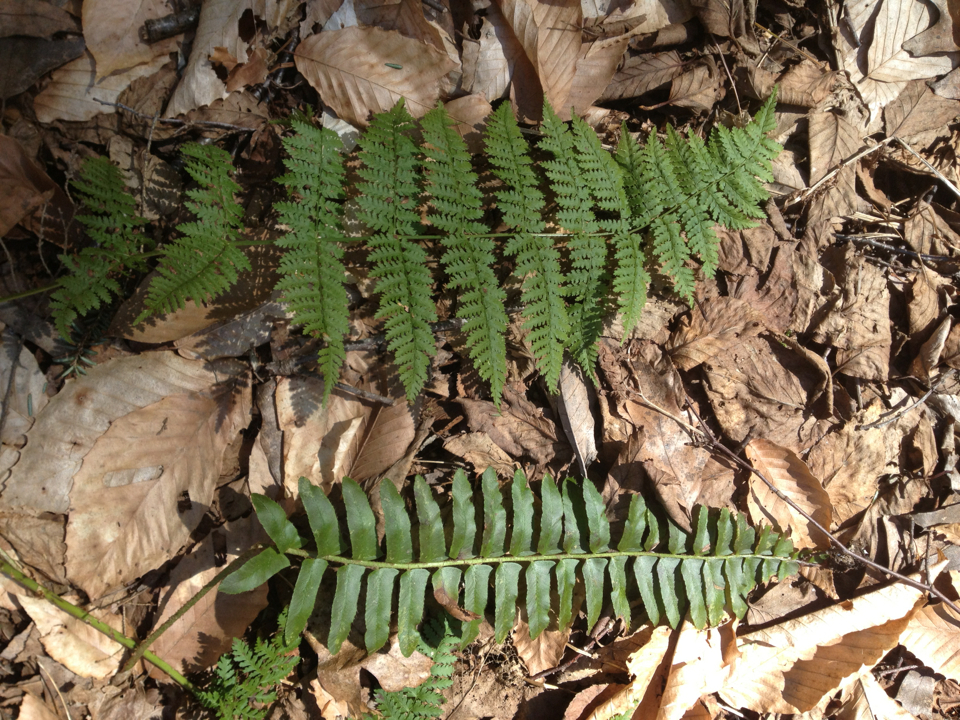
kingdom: Plantae
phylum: Tracheophyta
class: Polypodiopsida
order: Polypodiales
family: Dryopteridaceae
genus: Polystichum
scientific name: Polystichum acrostichoides
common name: Christmas fern
